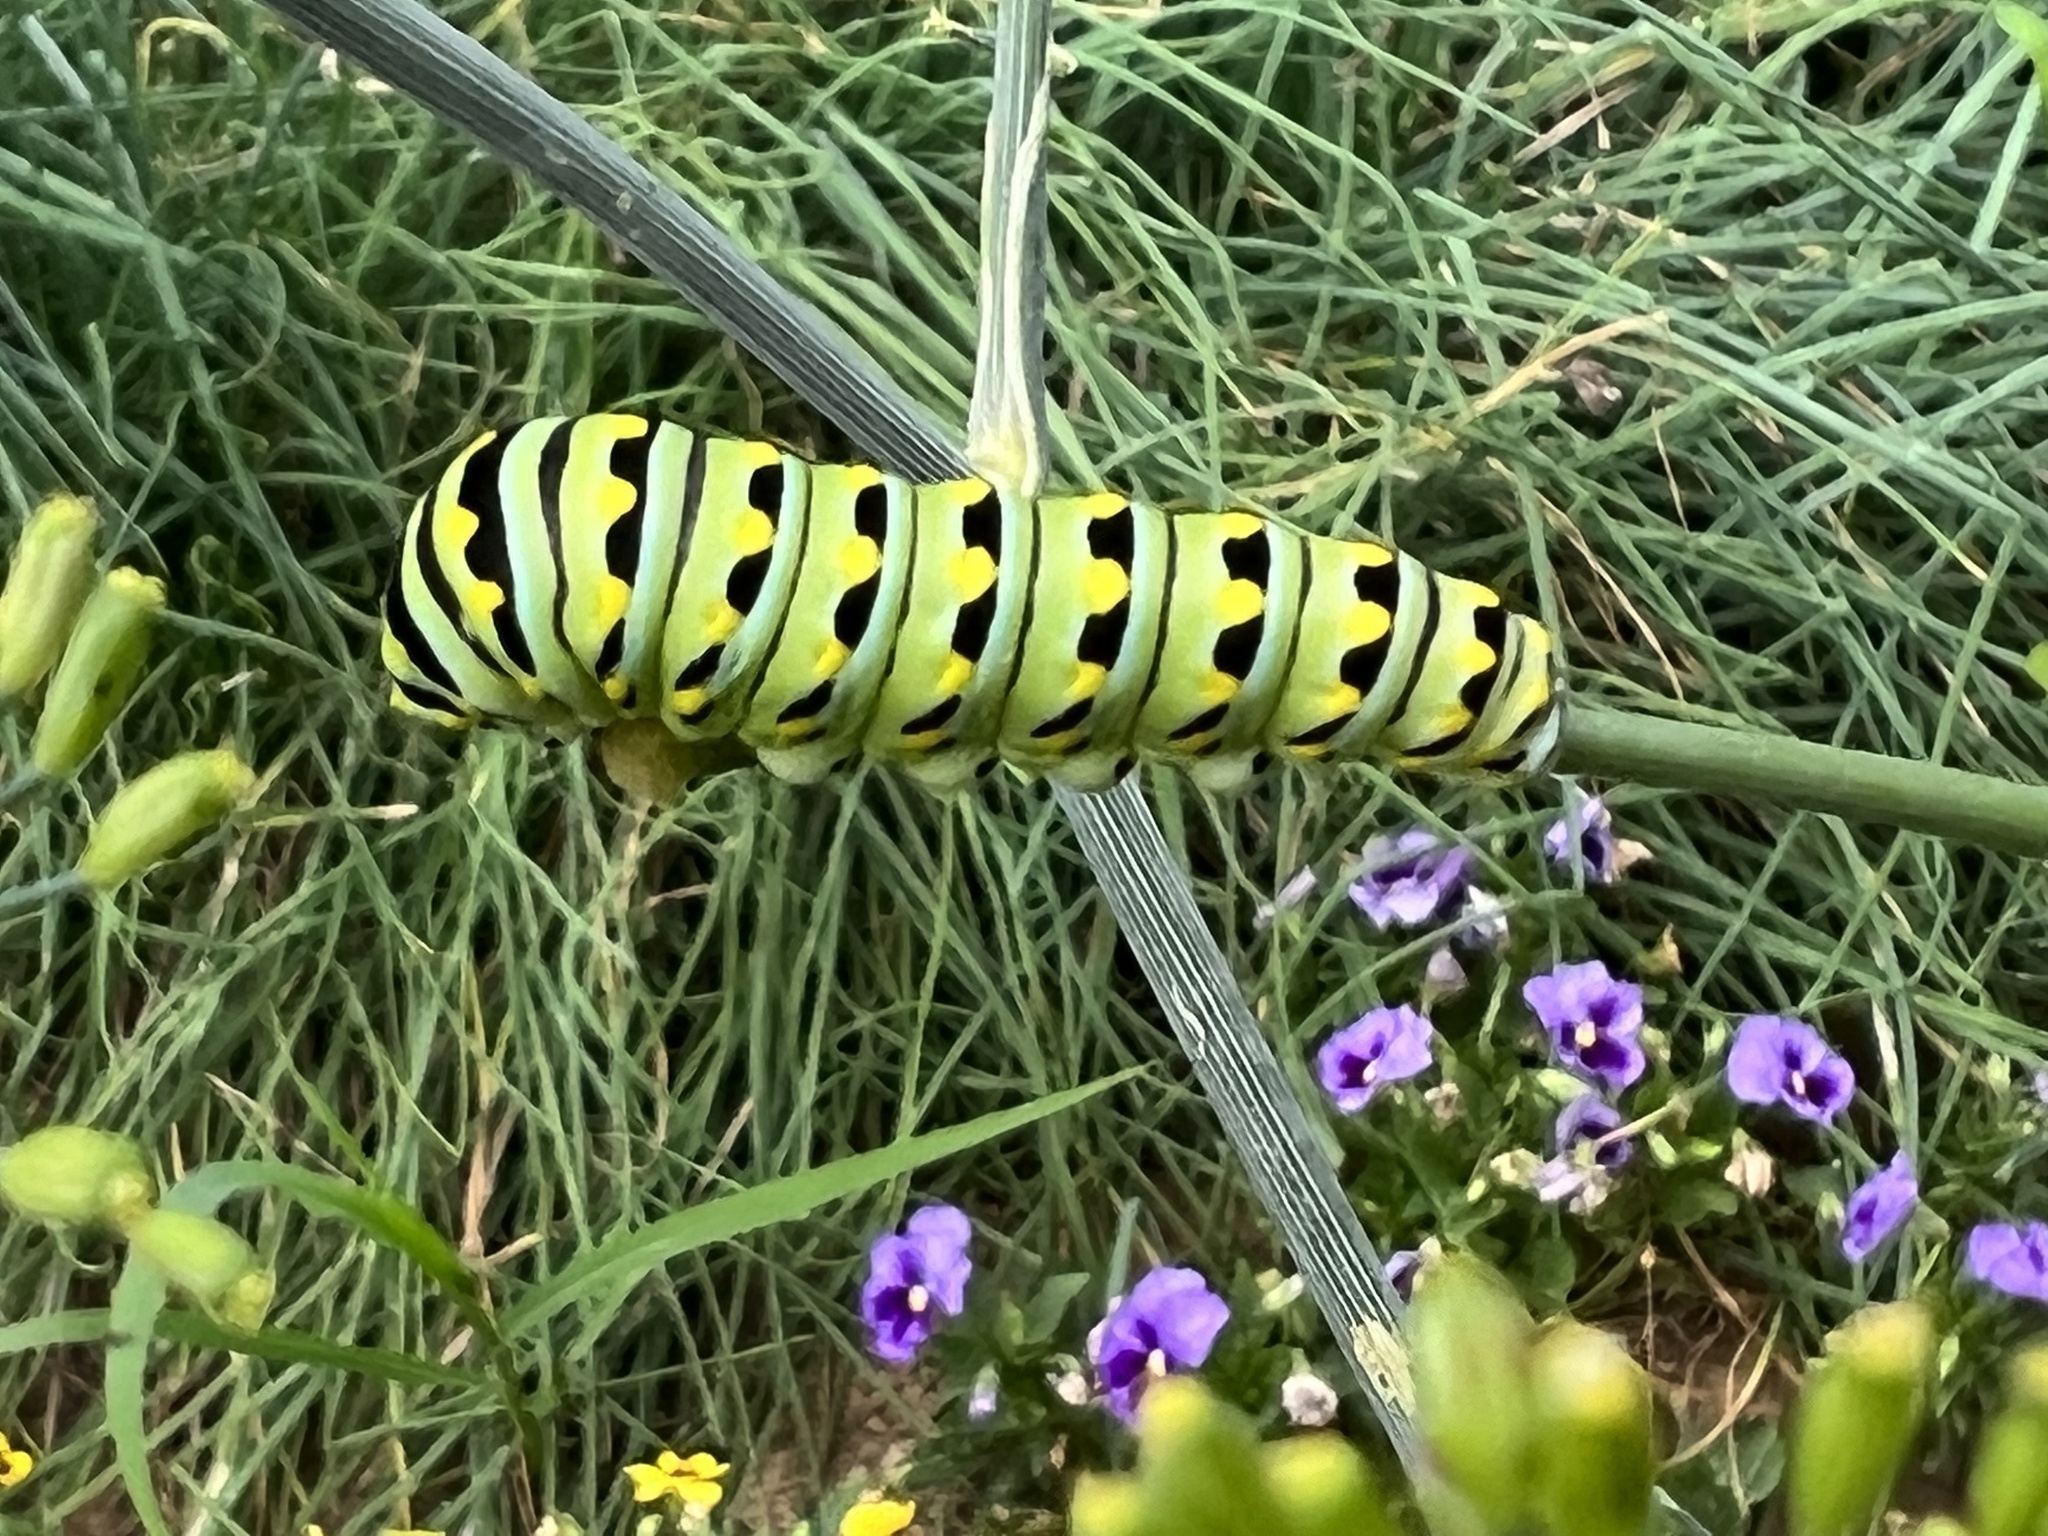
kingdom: Animalia
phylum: Arthropoda
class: Insecta
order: Lepidoptera
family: Papilionidae
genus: Papilio
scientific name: Papilio polyxenes
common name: Black swallowtail
